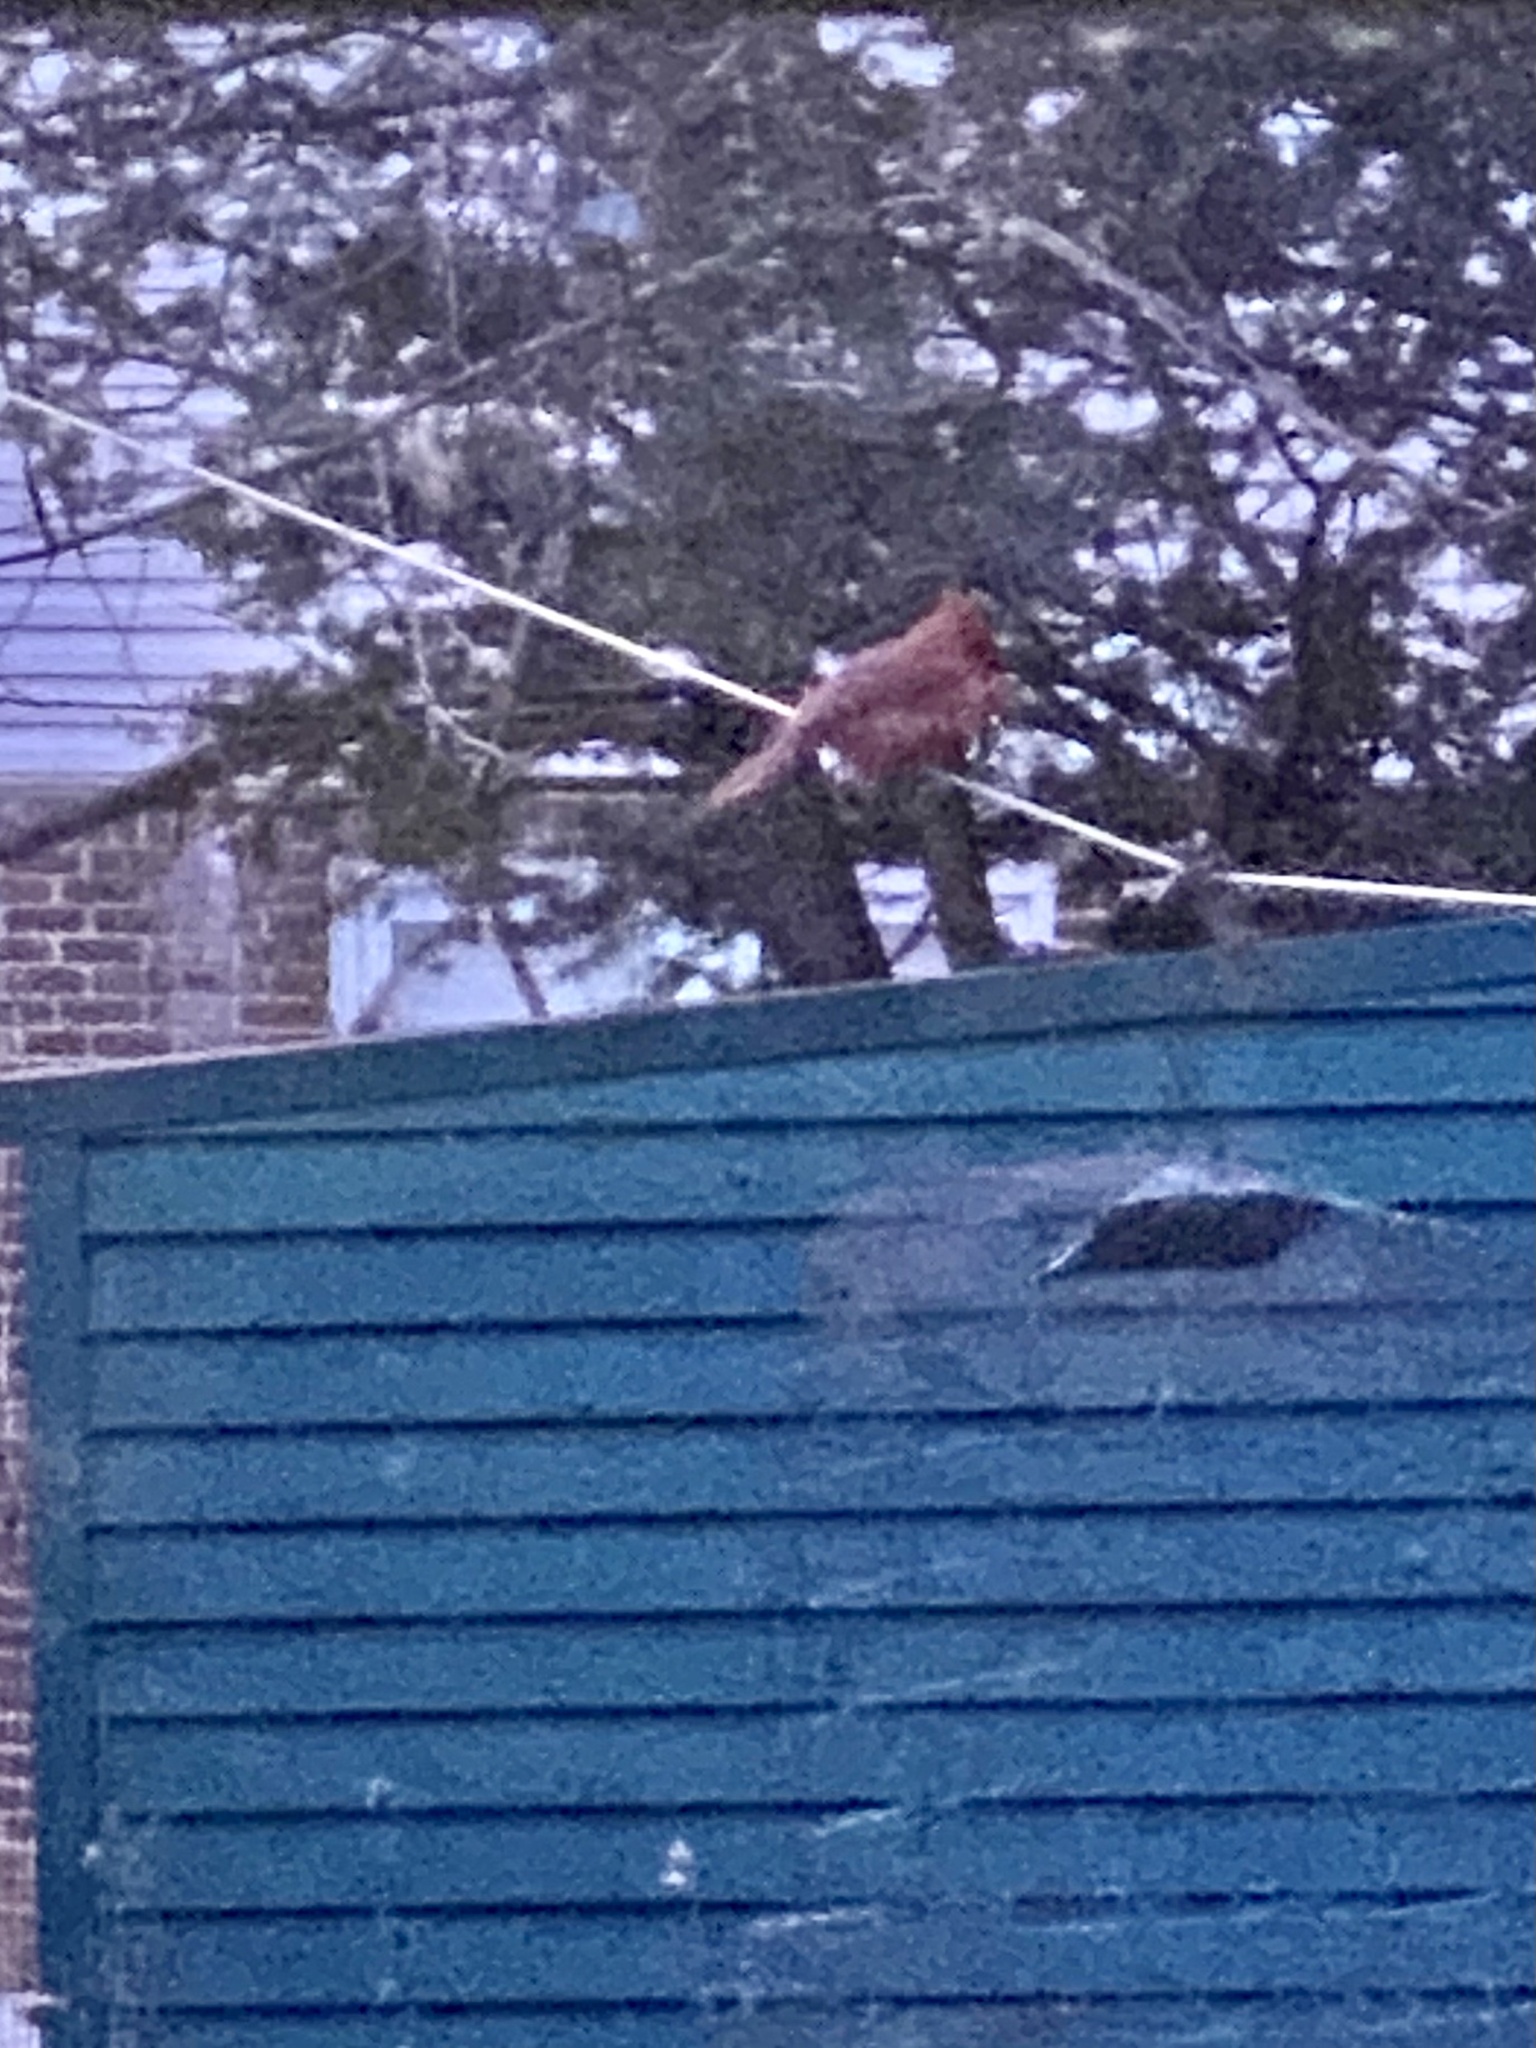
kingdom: Animalia
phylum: Chordata
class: Aves
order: Passeriformes
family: Cardinalidae
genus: Cardinalis
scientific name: Cardinalis cardinalis
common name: Northern cardinal
